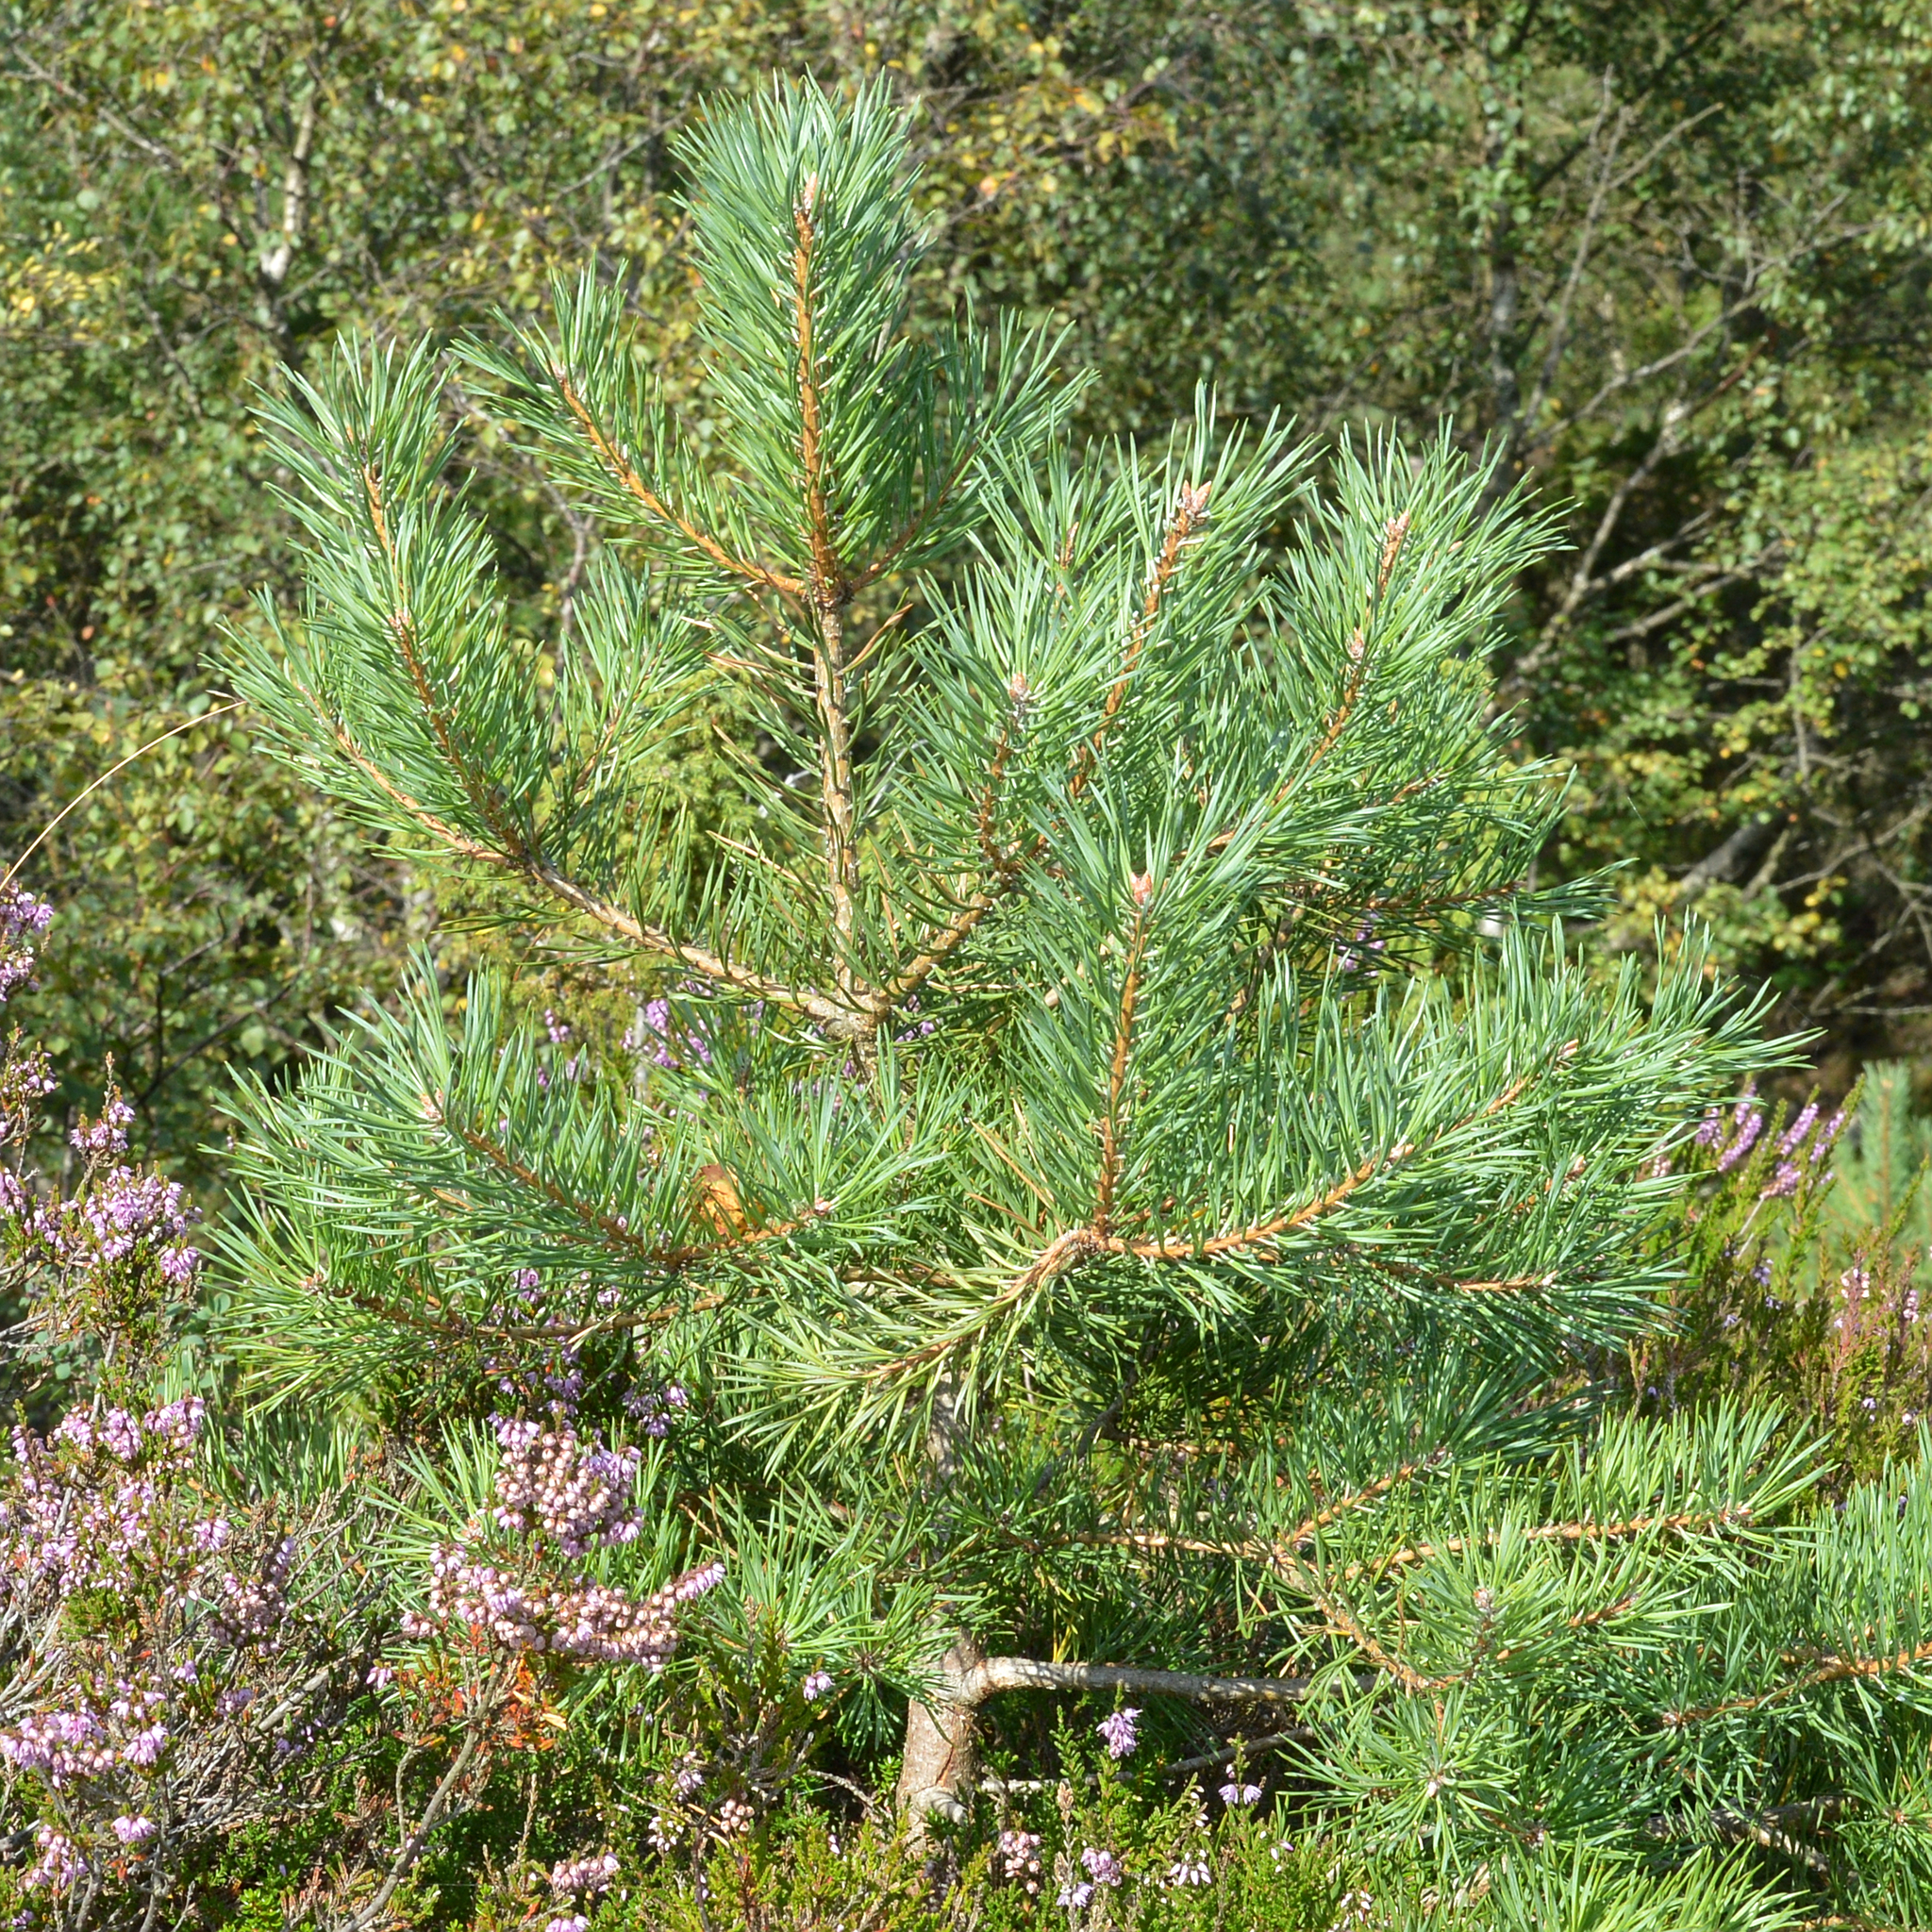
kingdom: Plantae
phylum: Tracheophyta
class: Pinopsida
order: Pinales
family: Pinaceae
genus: Pinus
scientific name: Pinus sylvestris
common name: Scots pine
